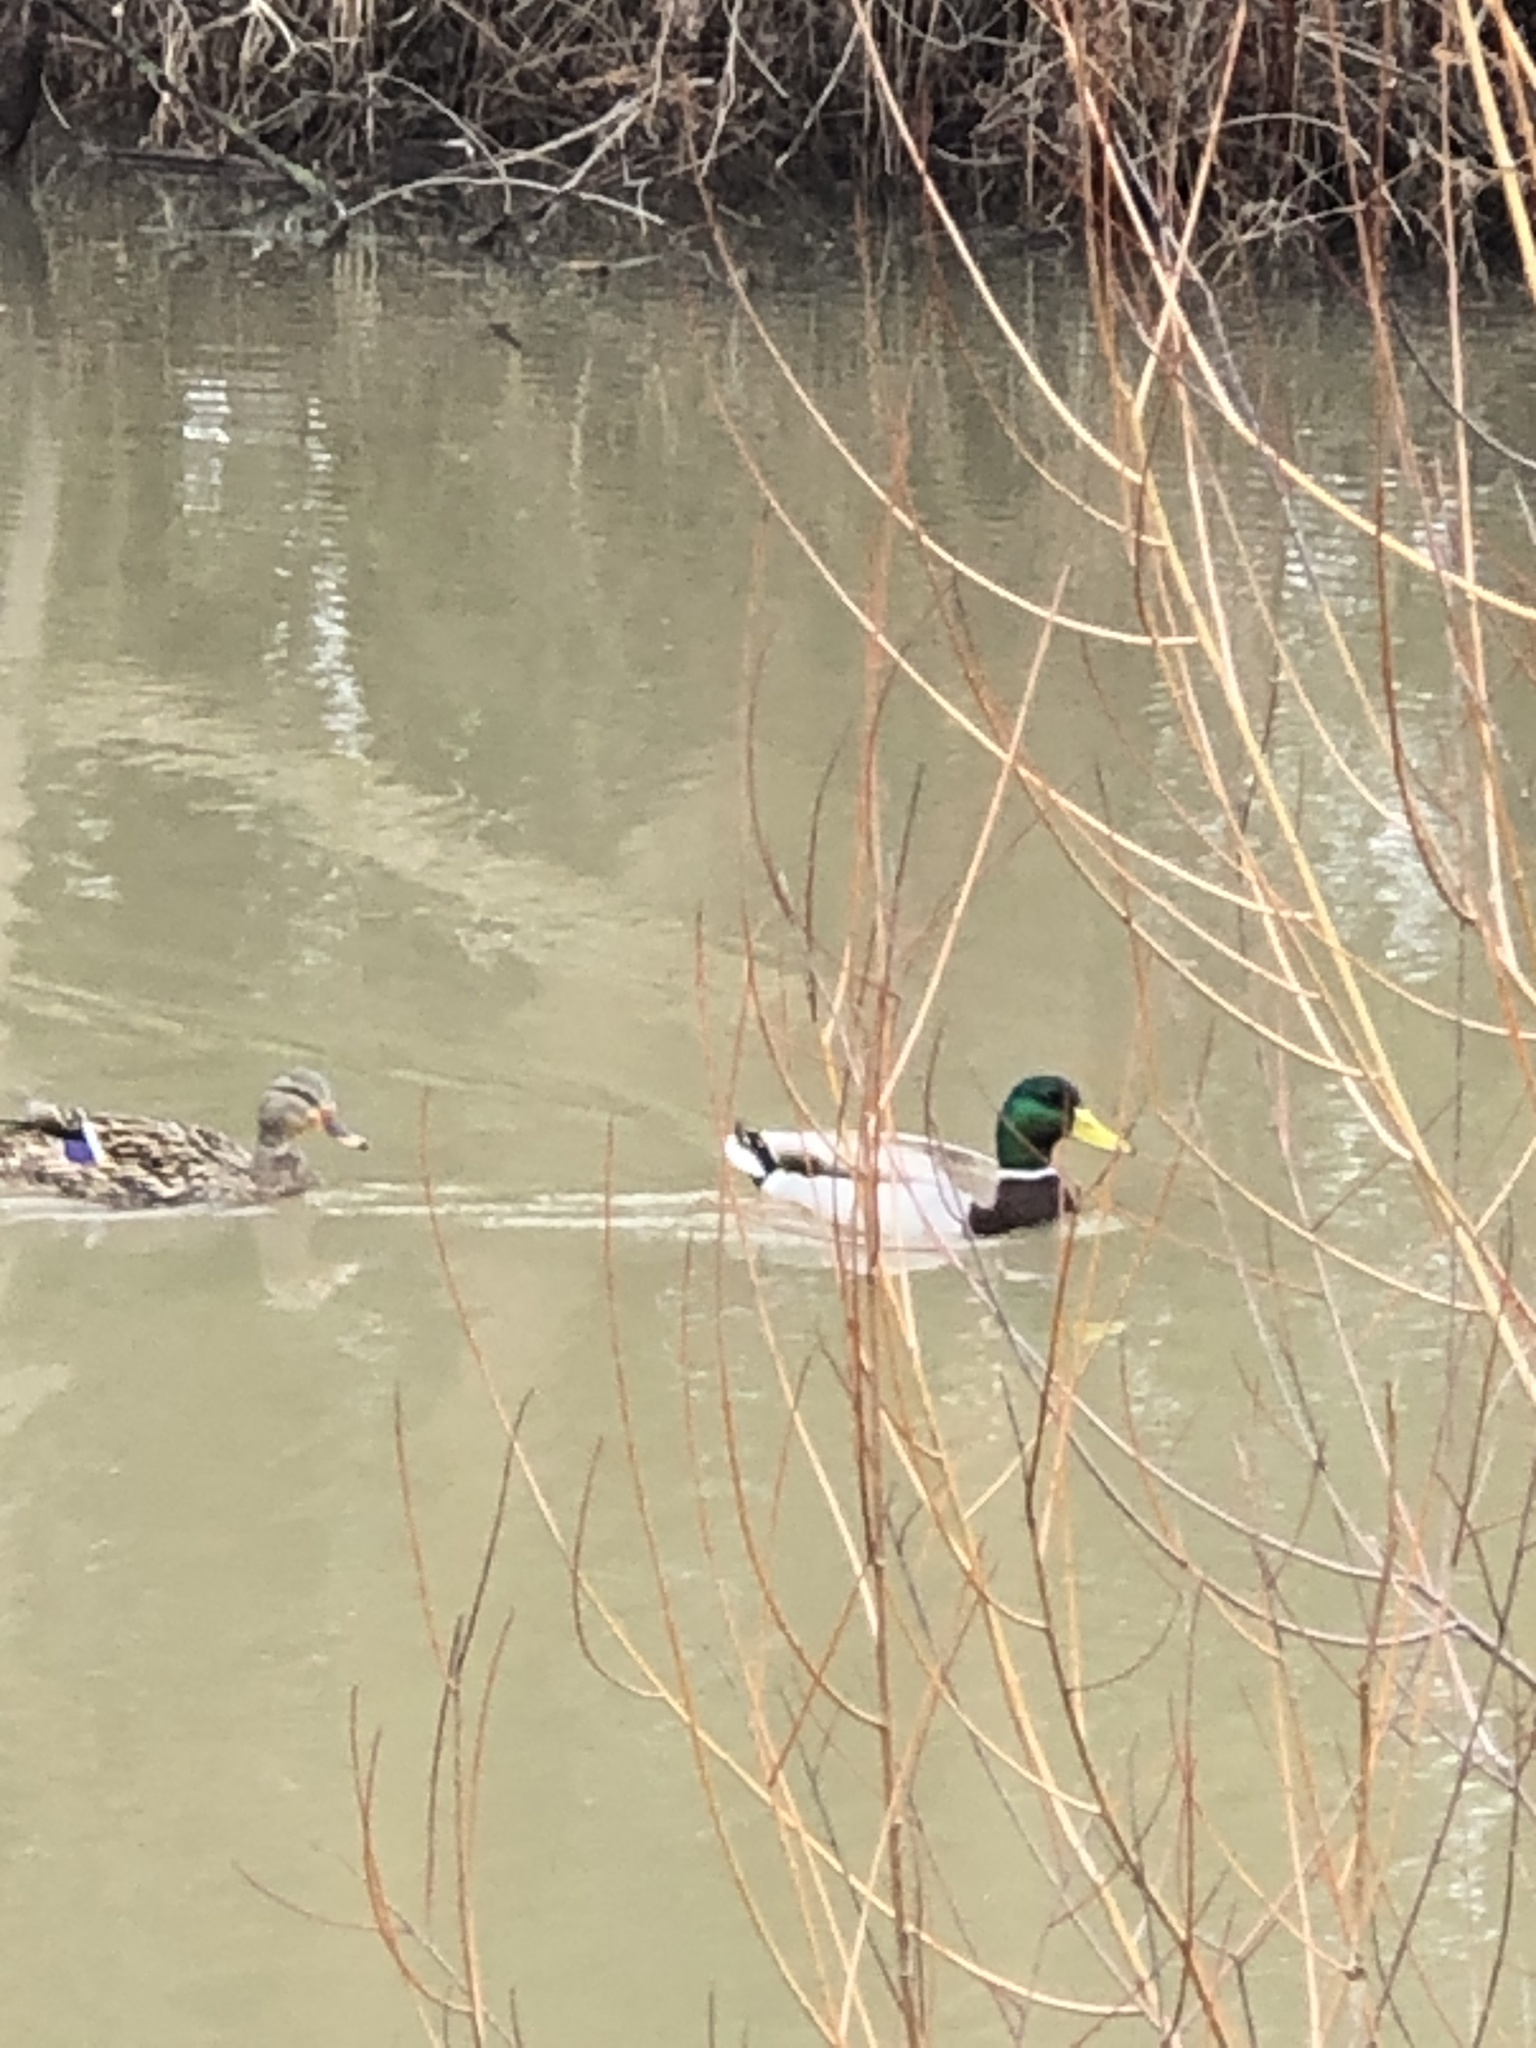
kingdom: Animalia
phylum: Chordata
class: Aves
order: Anseriformes
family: Anatidae
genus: Anas
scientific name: Anas platyrhynchos
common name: Mallard
